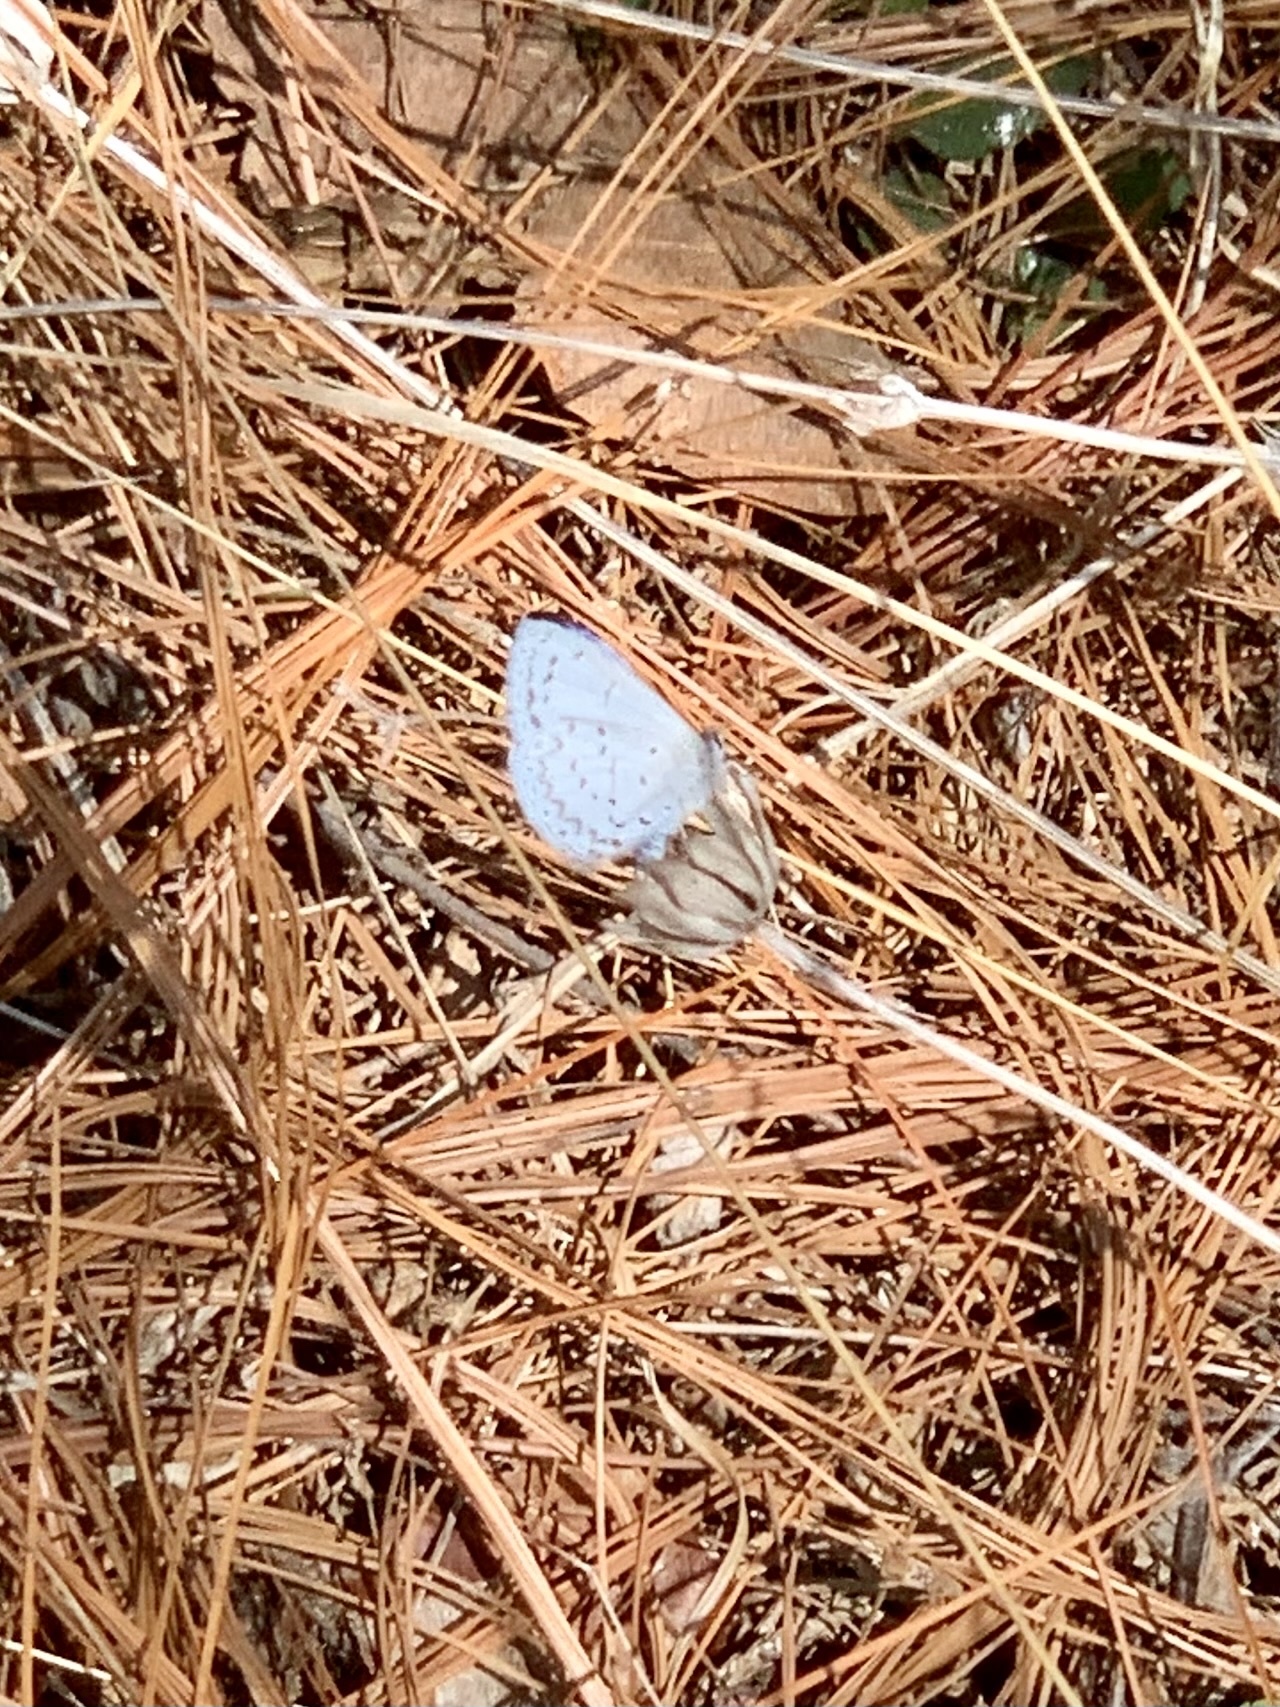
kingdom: Animalia
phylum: Arthropoda
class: Insecta
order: Lepidoptera
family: Lycaenidae
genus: Celastrina
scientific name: Celastrina ladon
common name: Spring azure
